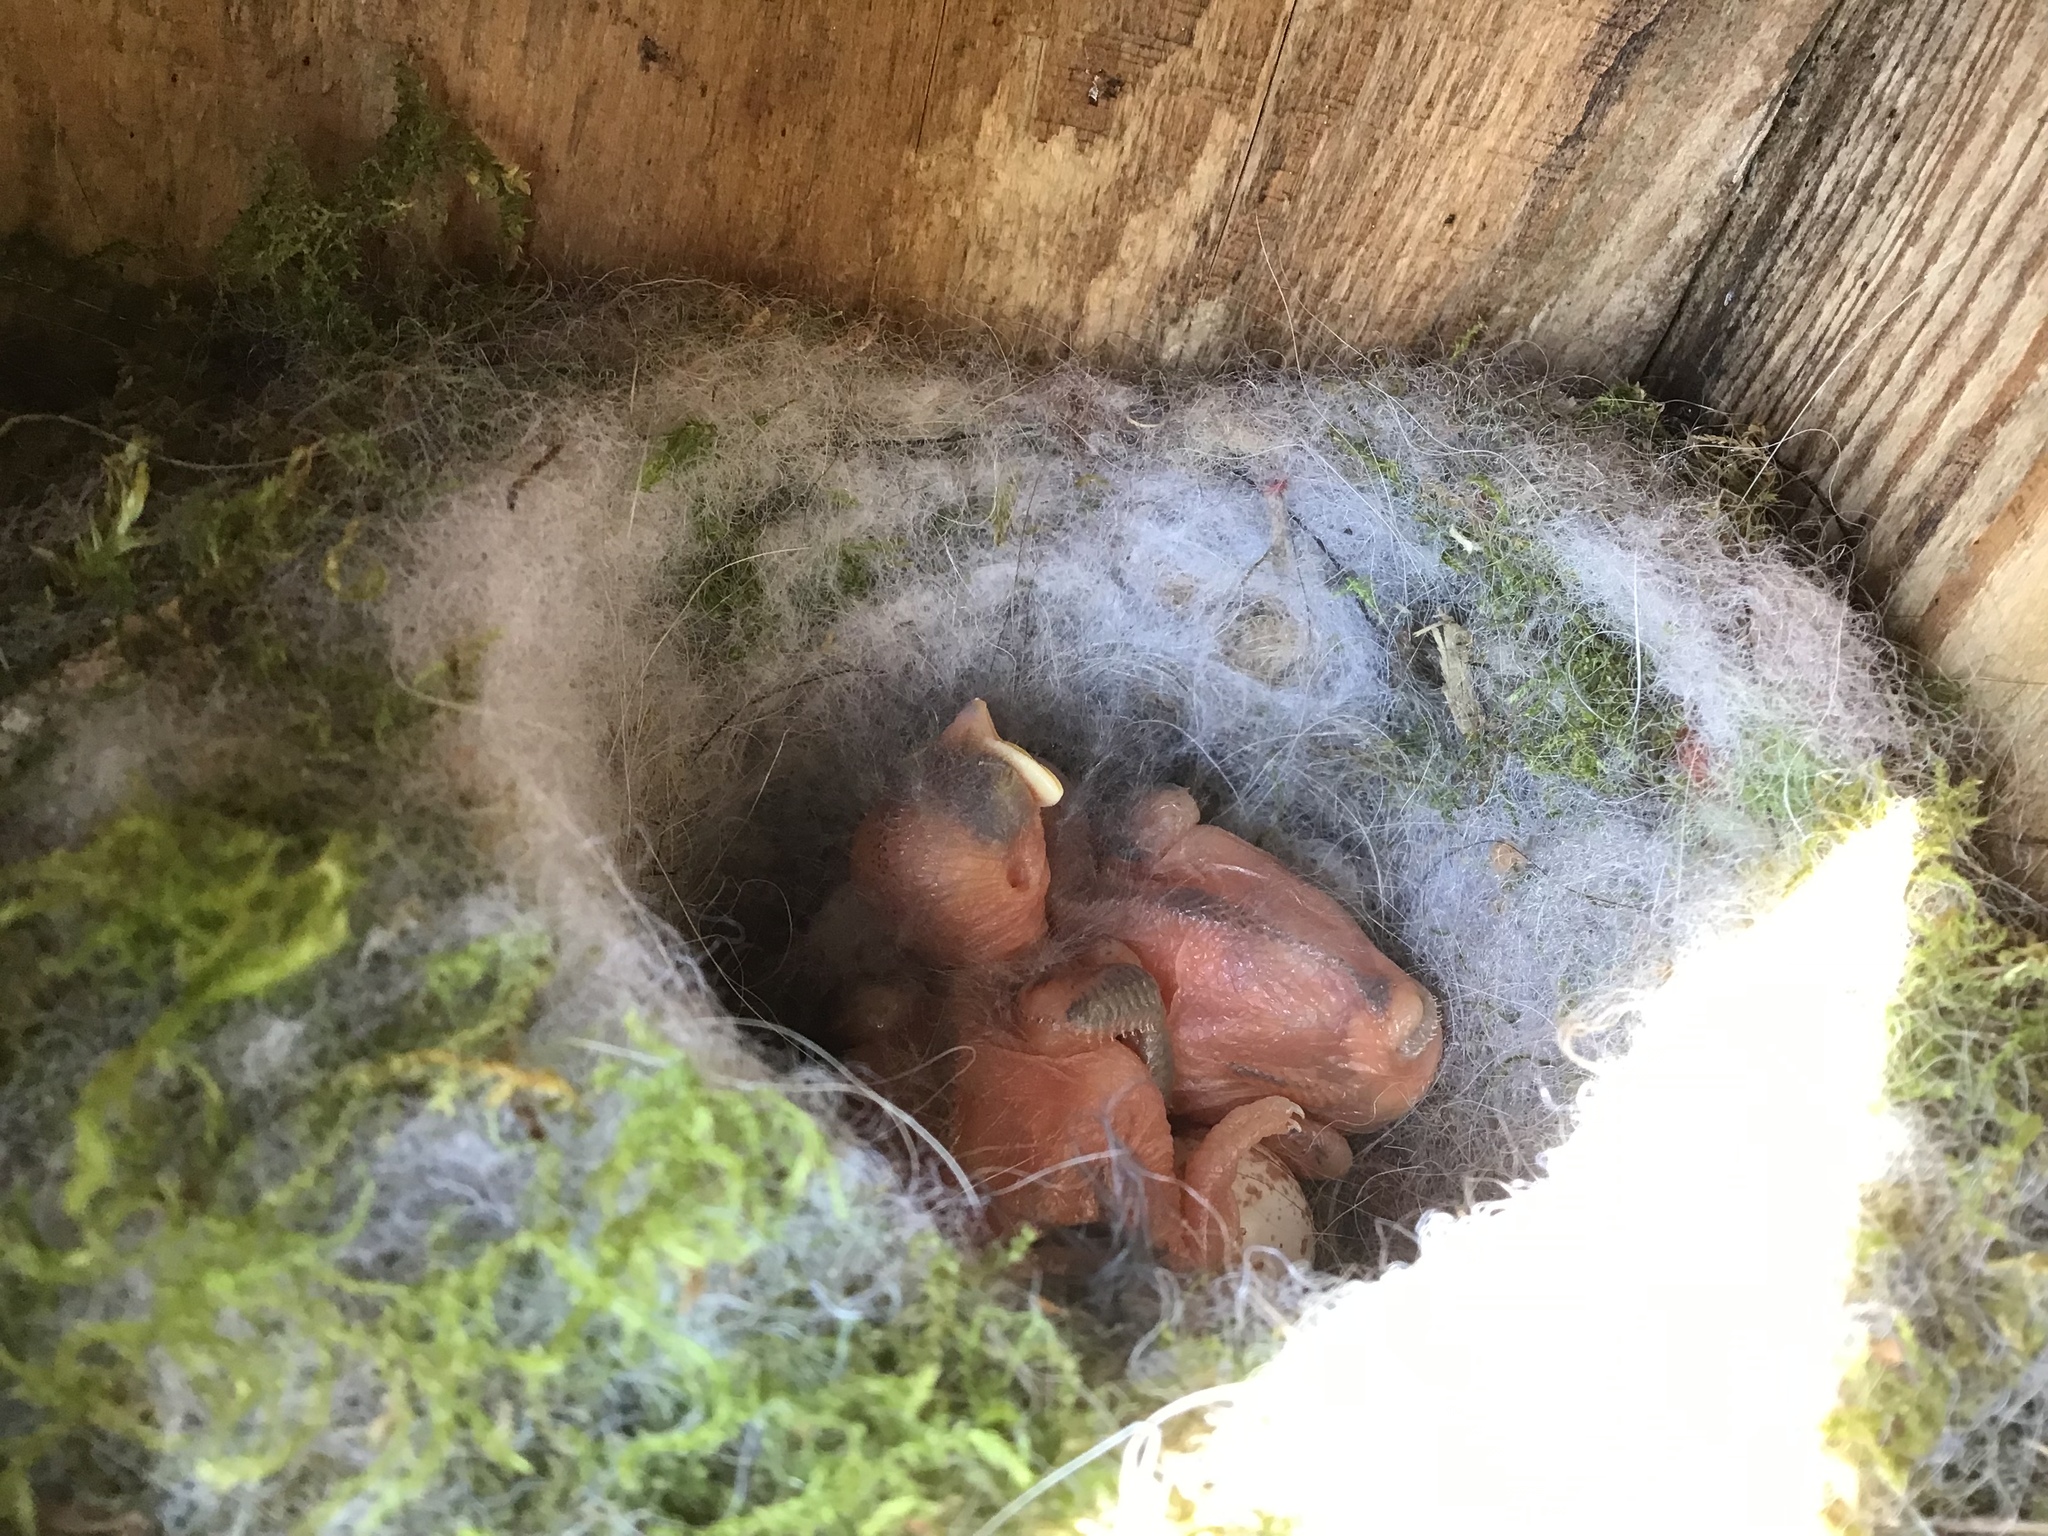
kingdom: Animalia
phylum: Chordata
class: Aves
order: Passeriformes
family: Paridae
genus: Parus
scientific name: Parus major
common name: Great tit
